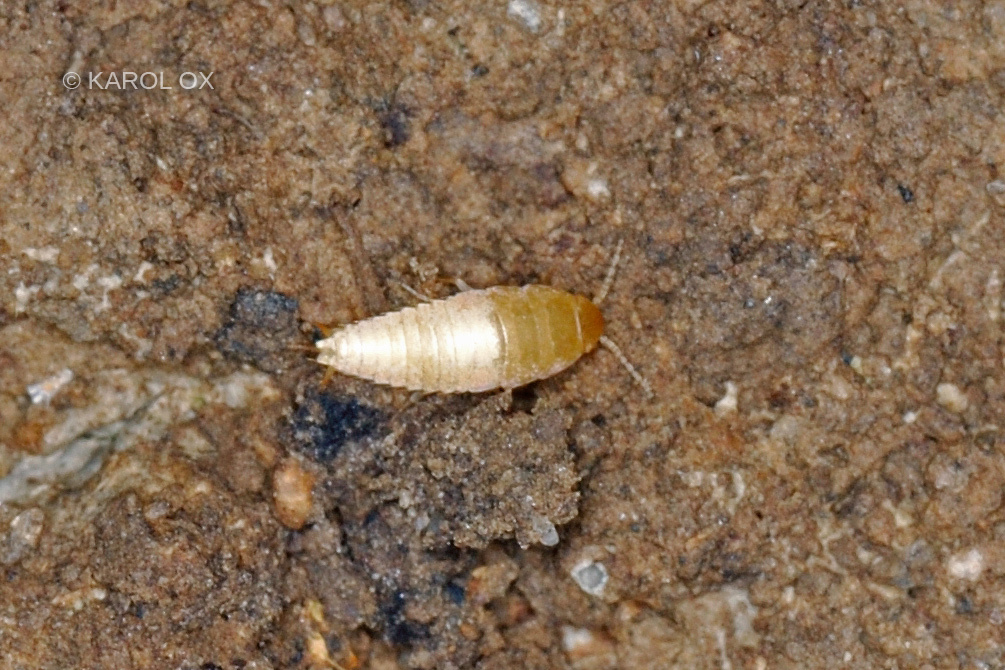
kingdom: Animalia
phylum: Arthropoda
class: Insecta
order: Zygentoma
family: Nicoletiidae
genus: Atelura
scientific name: Atelura formicaria
